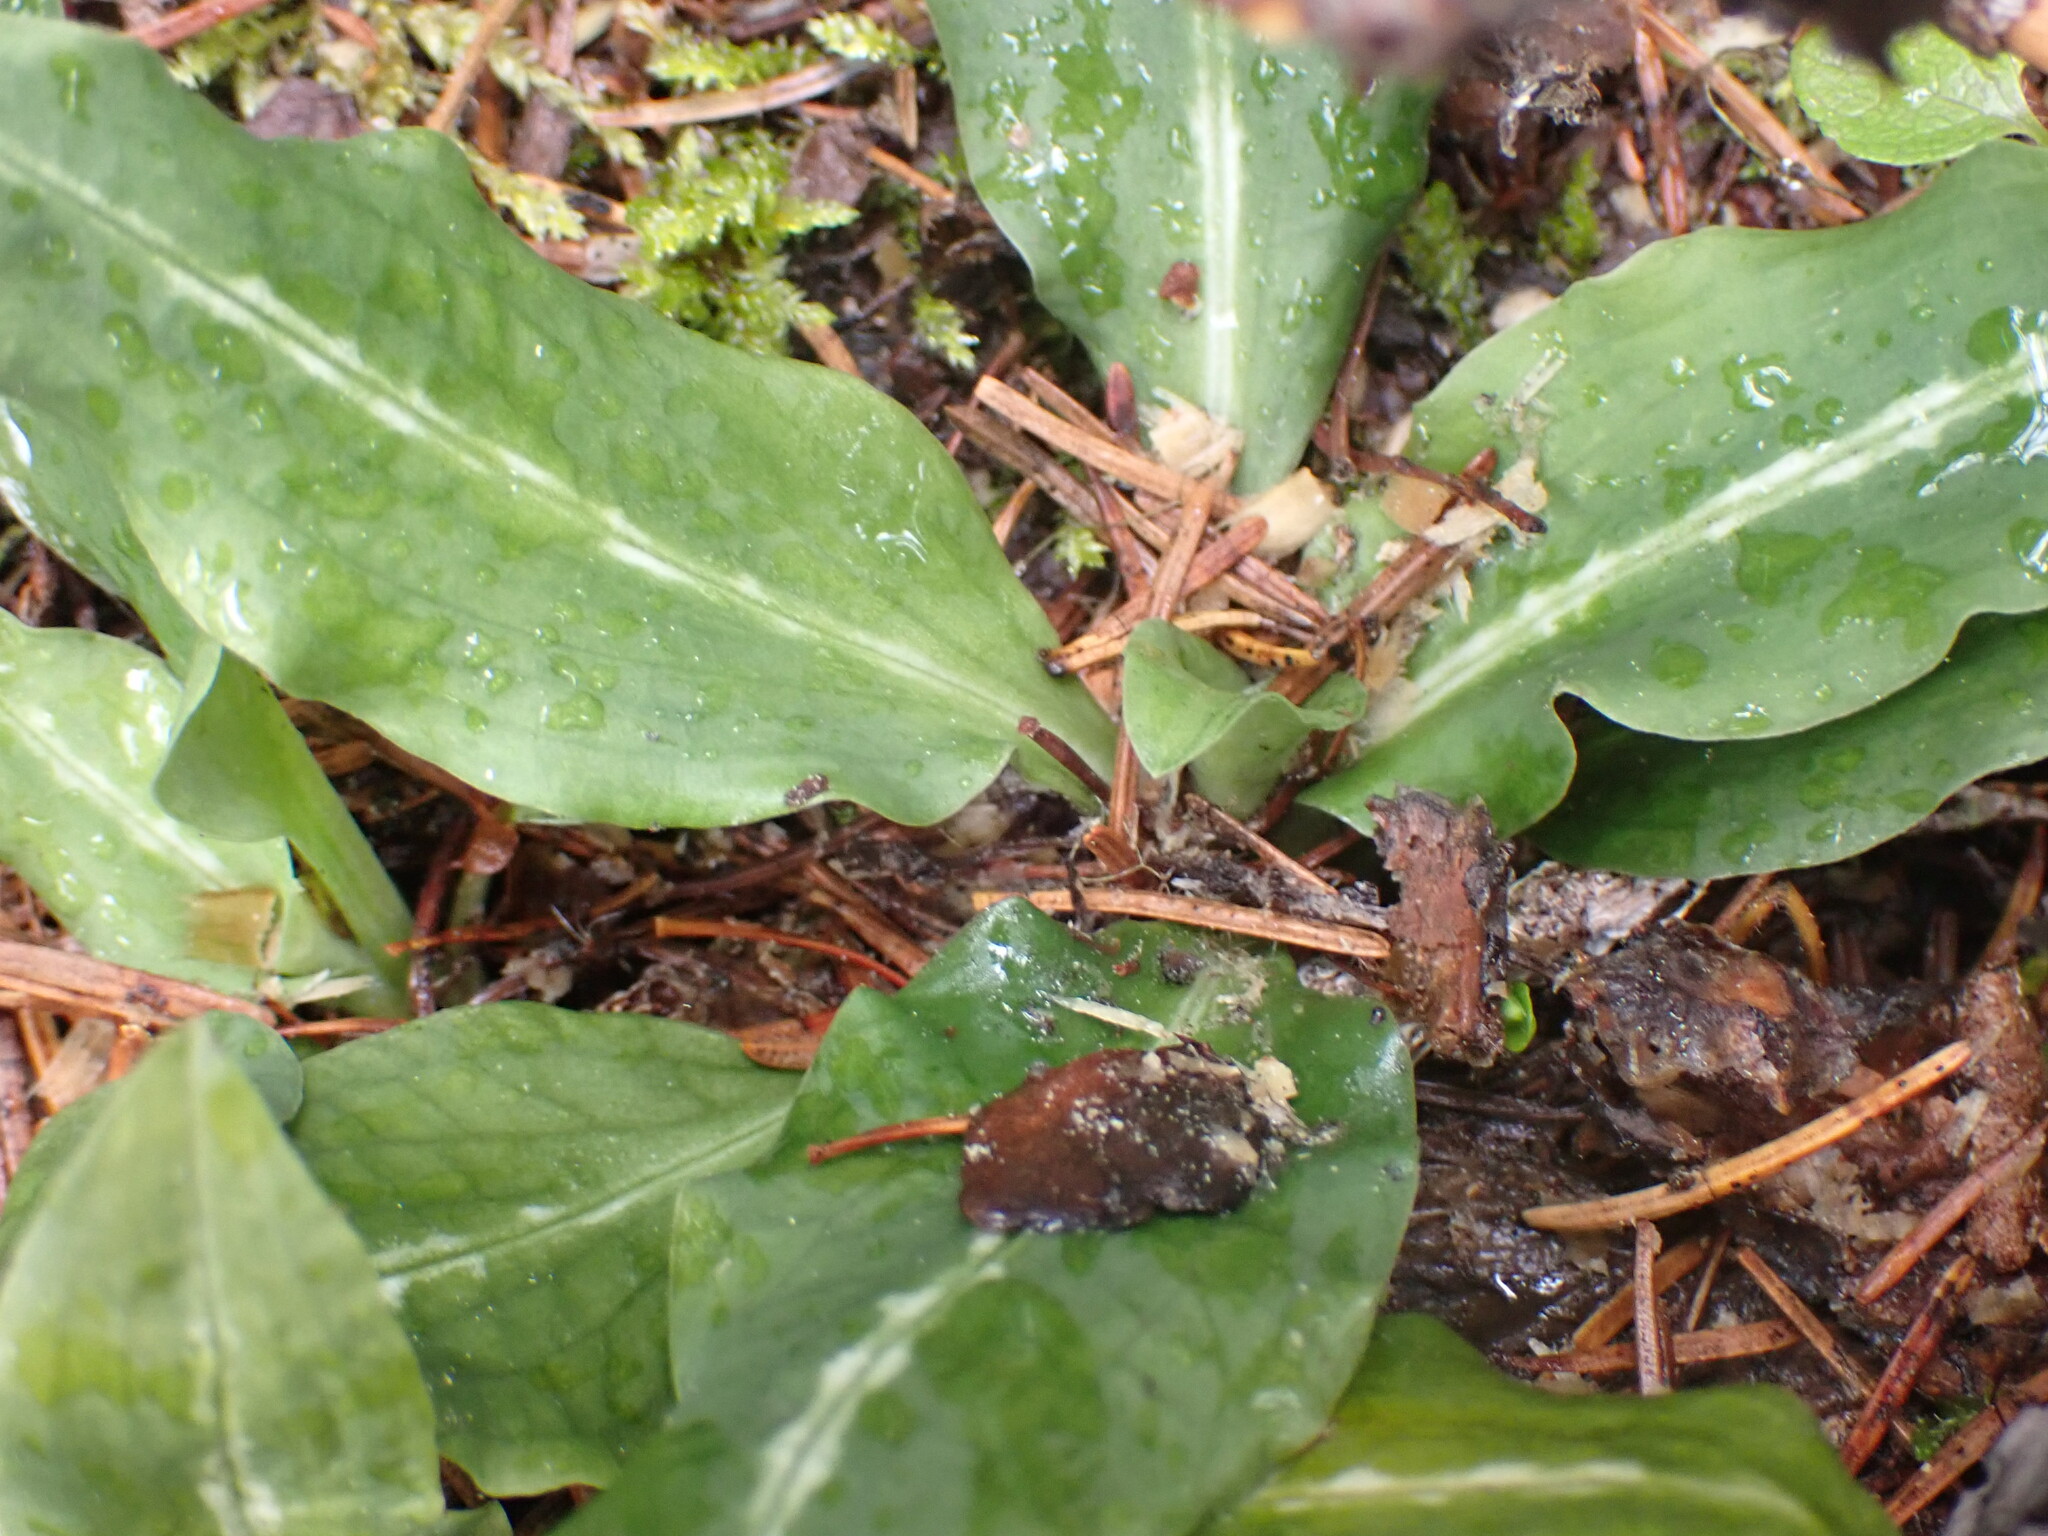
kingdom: Plantae
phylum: Tracheophyta
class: Liliopsida
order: Asparagales
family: Orchidaceae
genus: Goodyera
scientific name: Goodyera oblongifolia
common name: Giant rattlesnake-plantain
